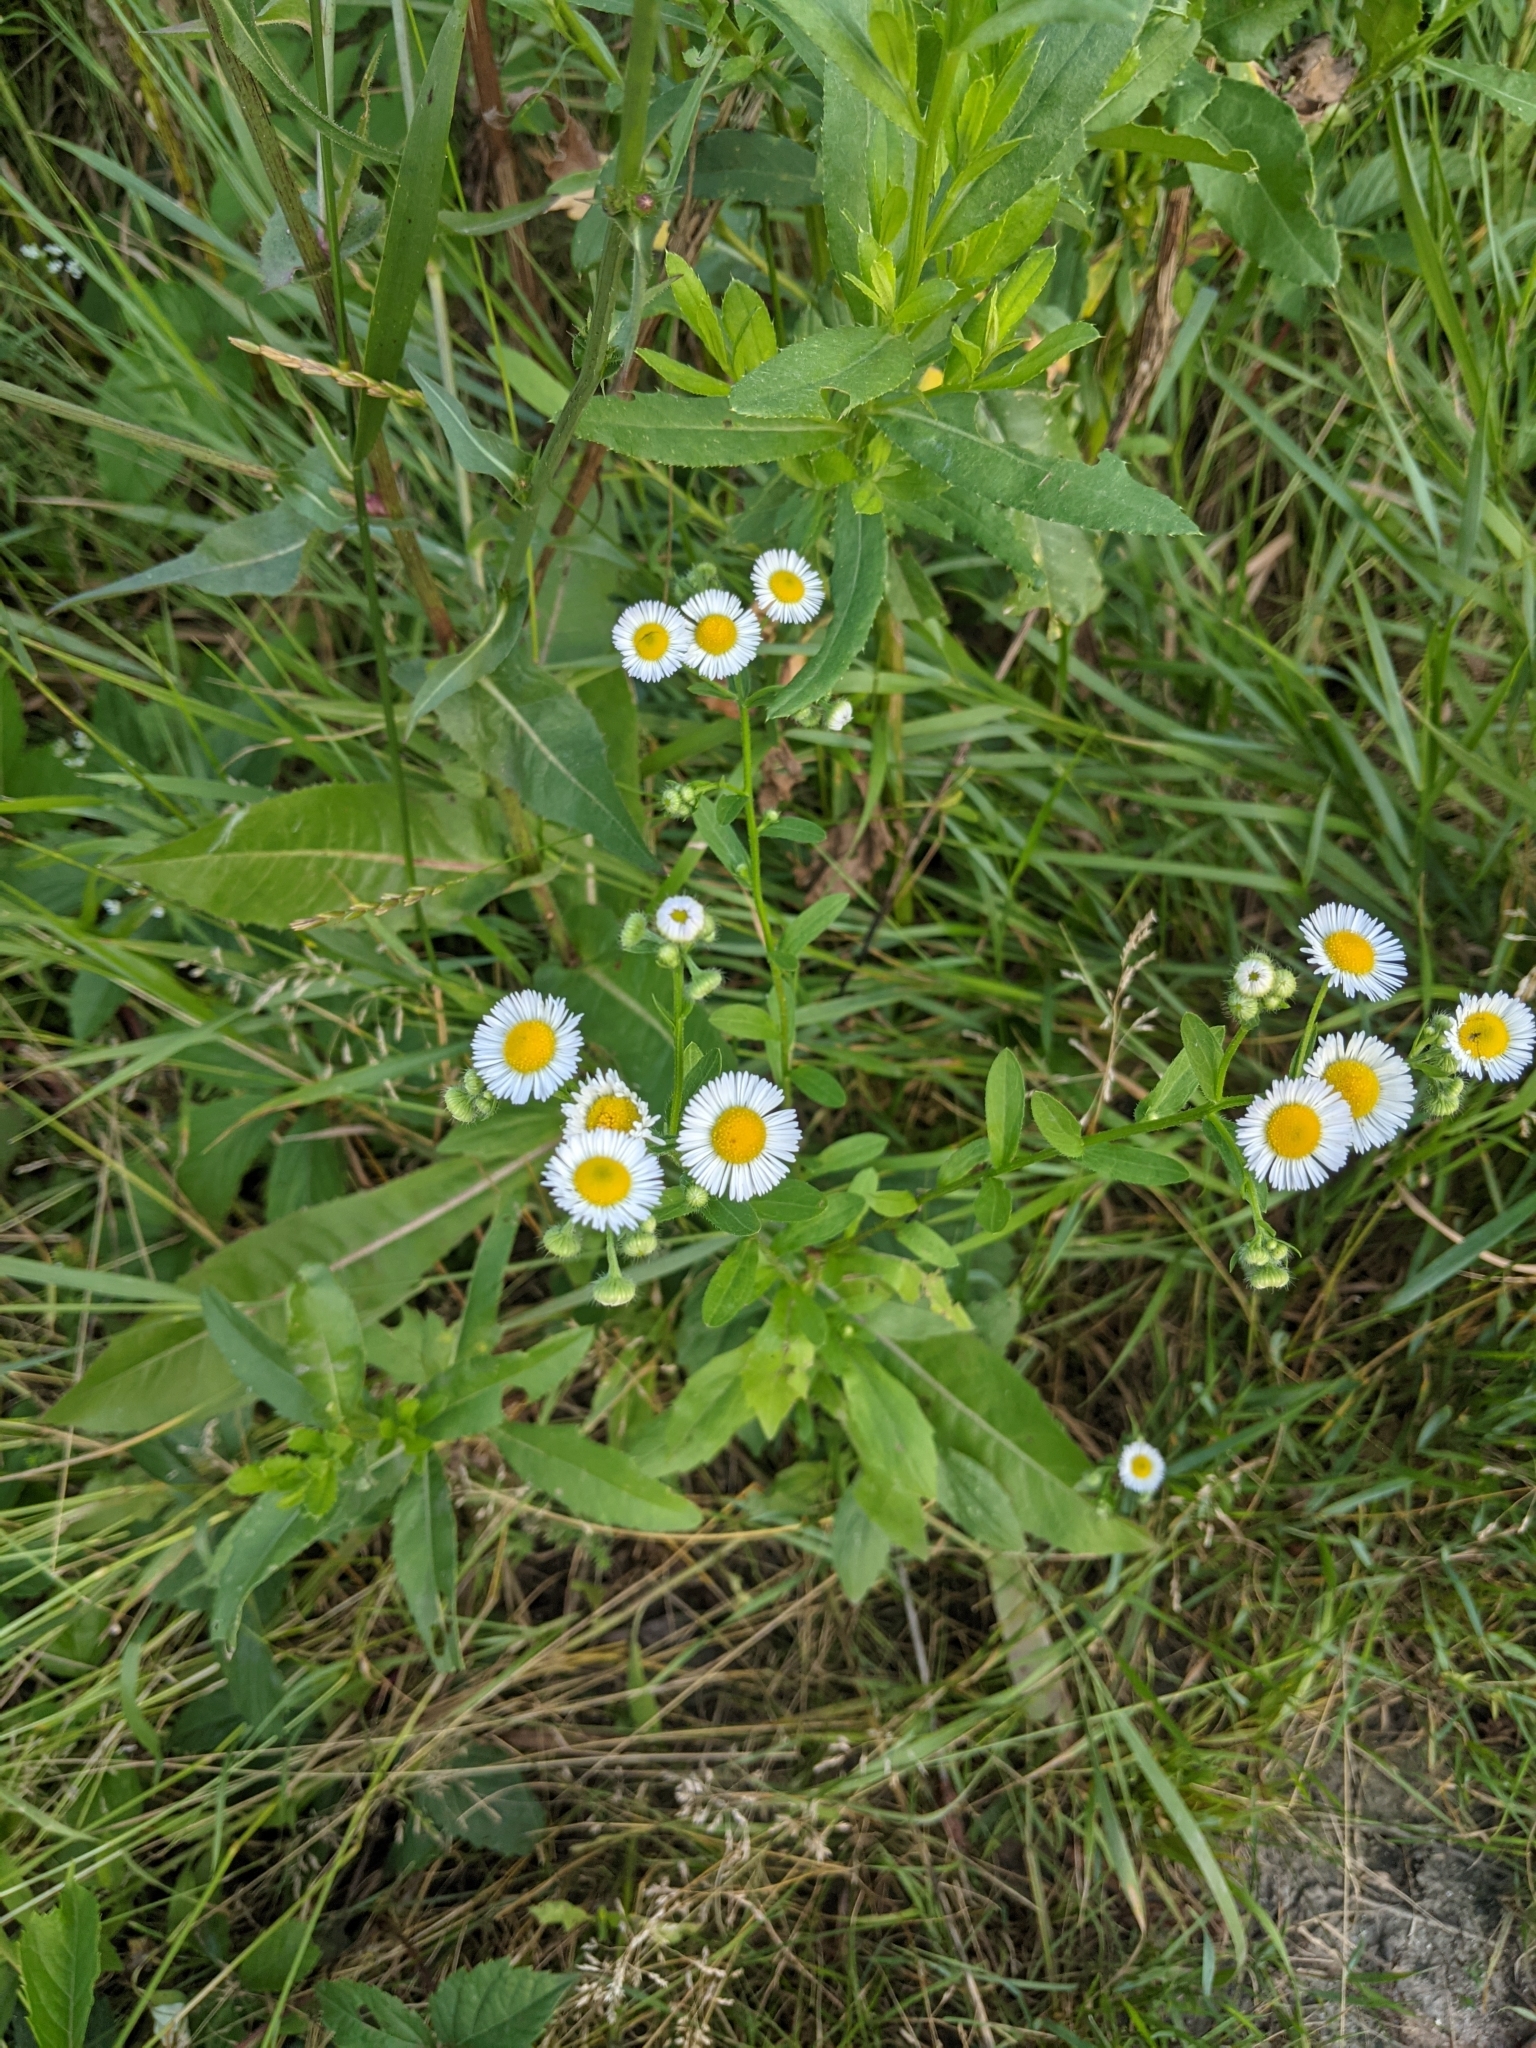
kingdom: Plantae
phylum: Tracheophyta
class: Magnoliopsida
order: Asterales
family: Asteraceae
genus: Erigeron
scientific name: Erigeron annuus
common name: Tall fleabane
